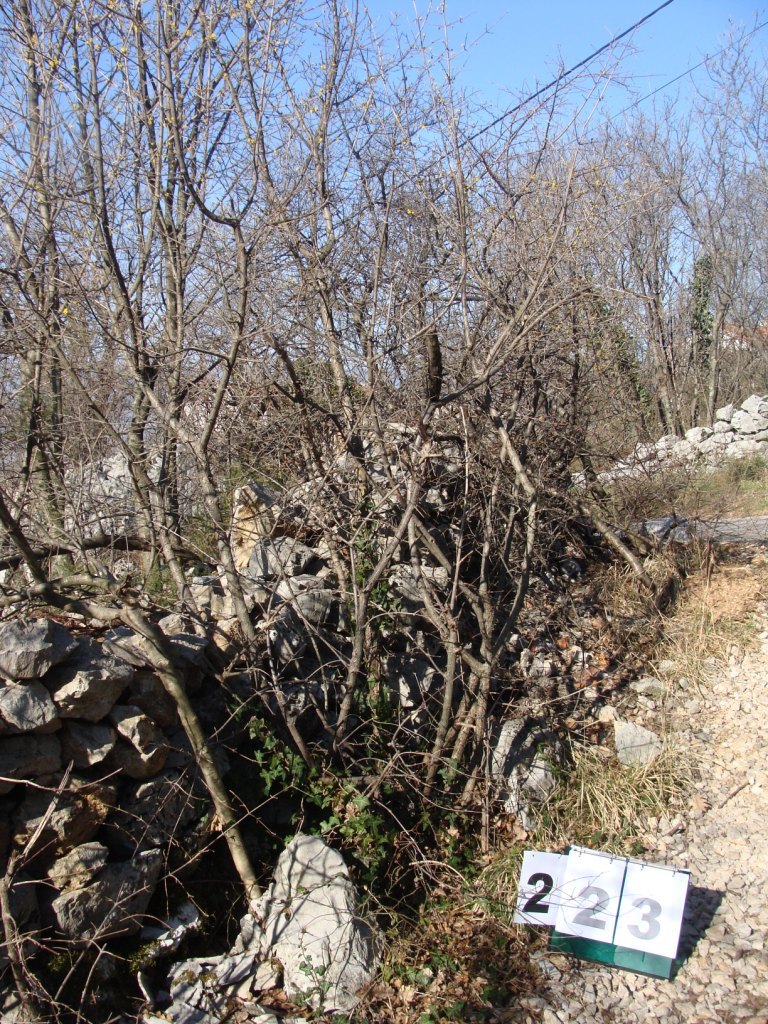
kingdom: Plantae
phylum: Tracheophyta
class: Magnoliopsida
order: Cornales
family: Cornaceae
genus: Cornus
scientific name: Cornus mas
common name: Cornelian-cherry
